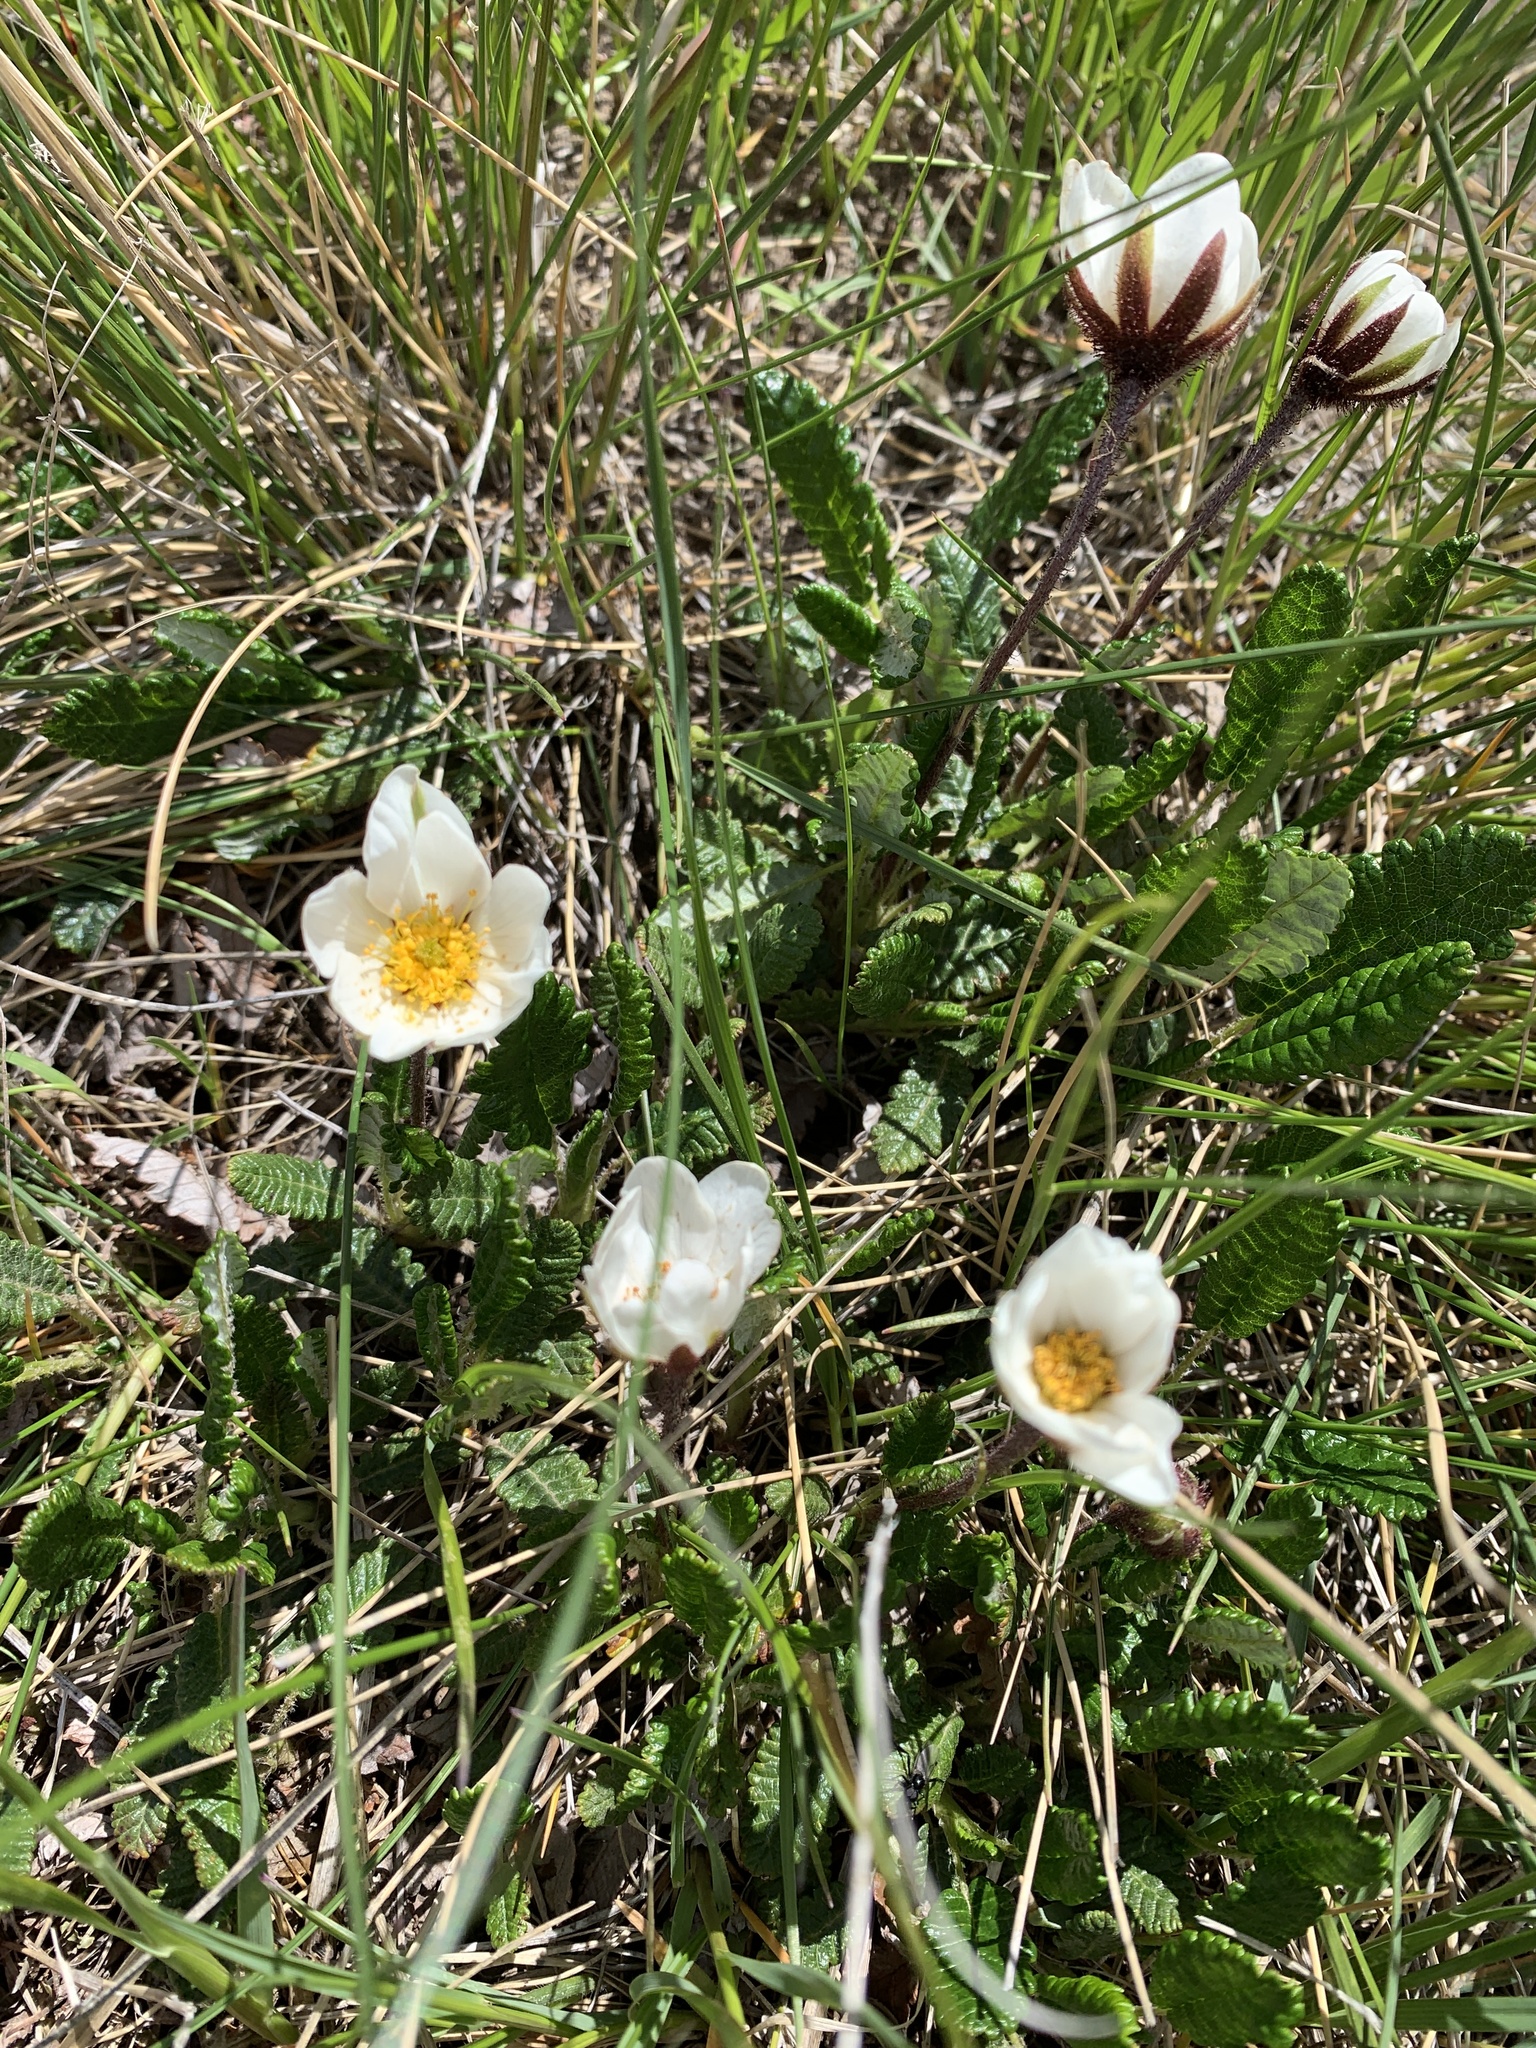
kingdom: Plantae
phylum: Tracheophyta
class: Magnoliopsida
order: Rosales
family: Rosaceae
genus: Dryas
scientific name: Dryas octopetala
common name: Eight-petal mountain-avens
